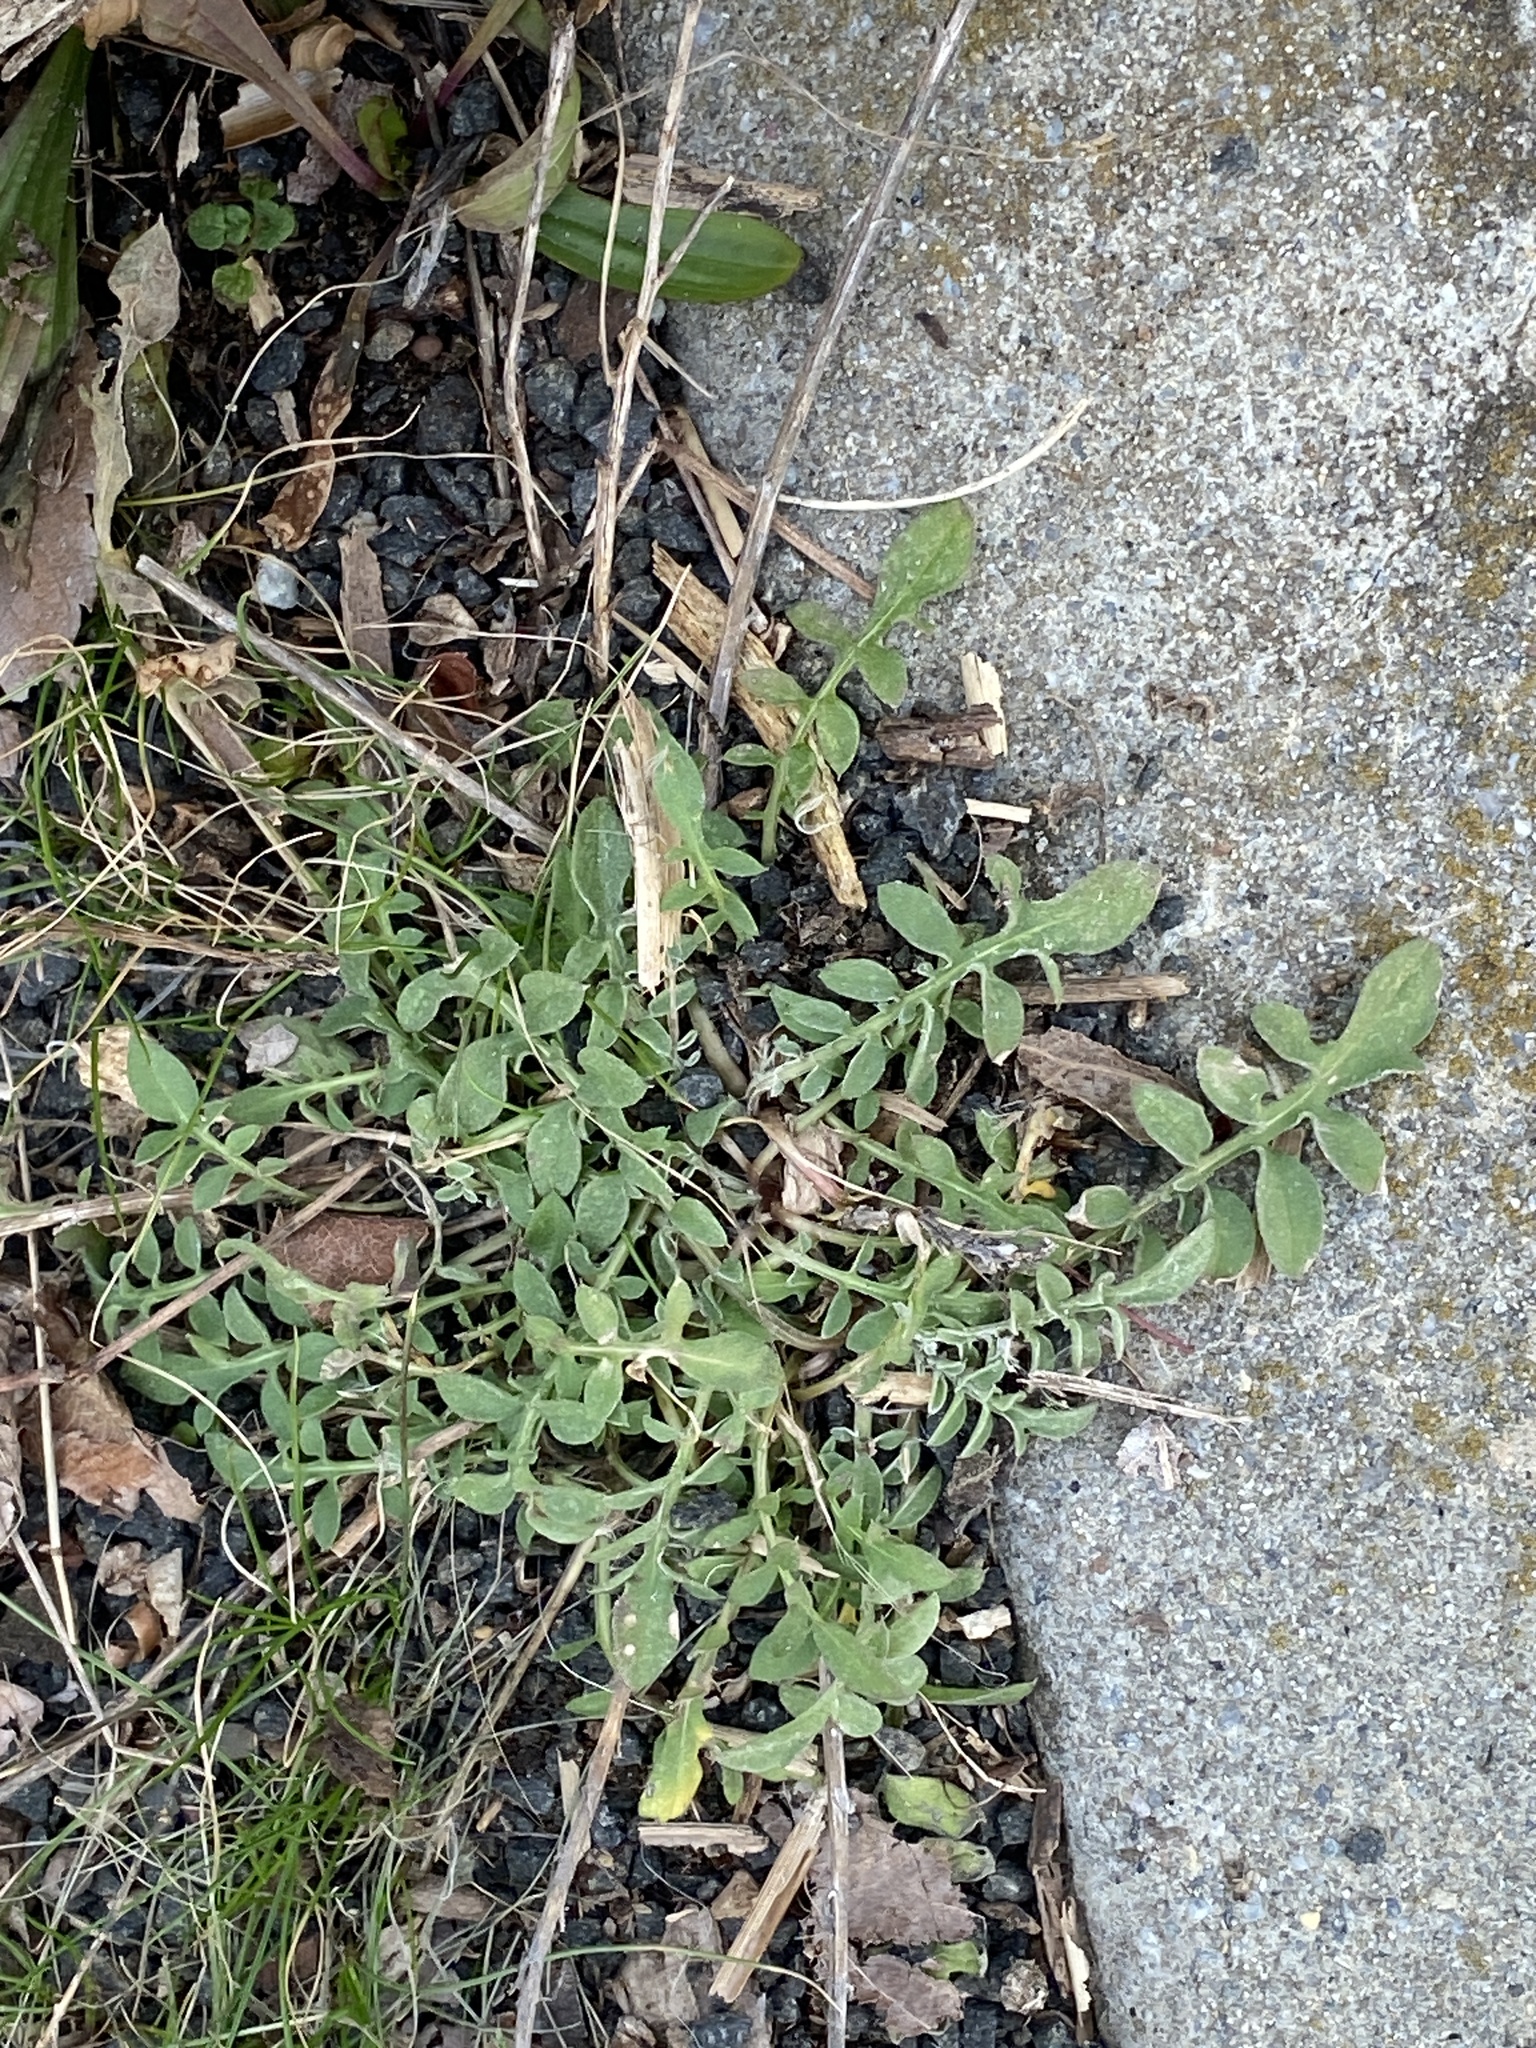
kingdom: Plantae
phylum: Tracheophyta
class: Magnoliopsida
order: Asterales
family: Asteraceae
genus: Centaurea
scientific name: Centaurea stoebe
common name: Spotted knapweed
